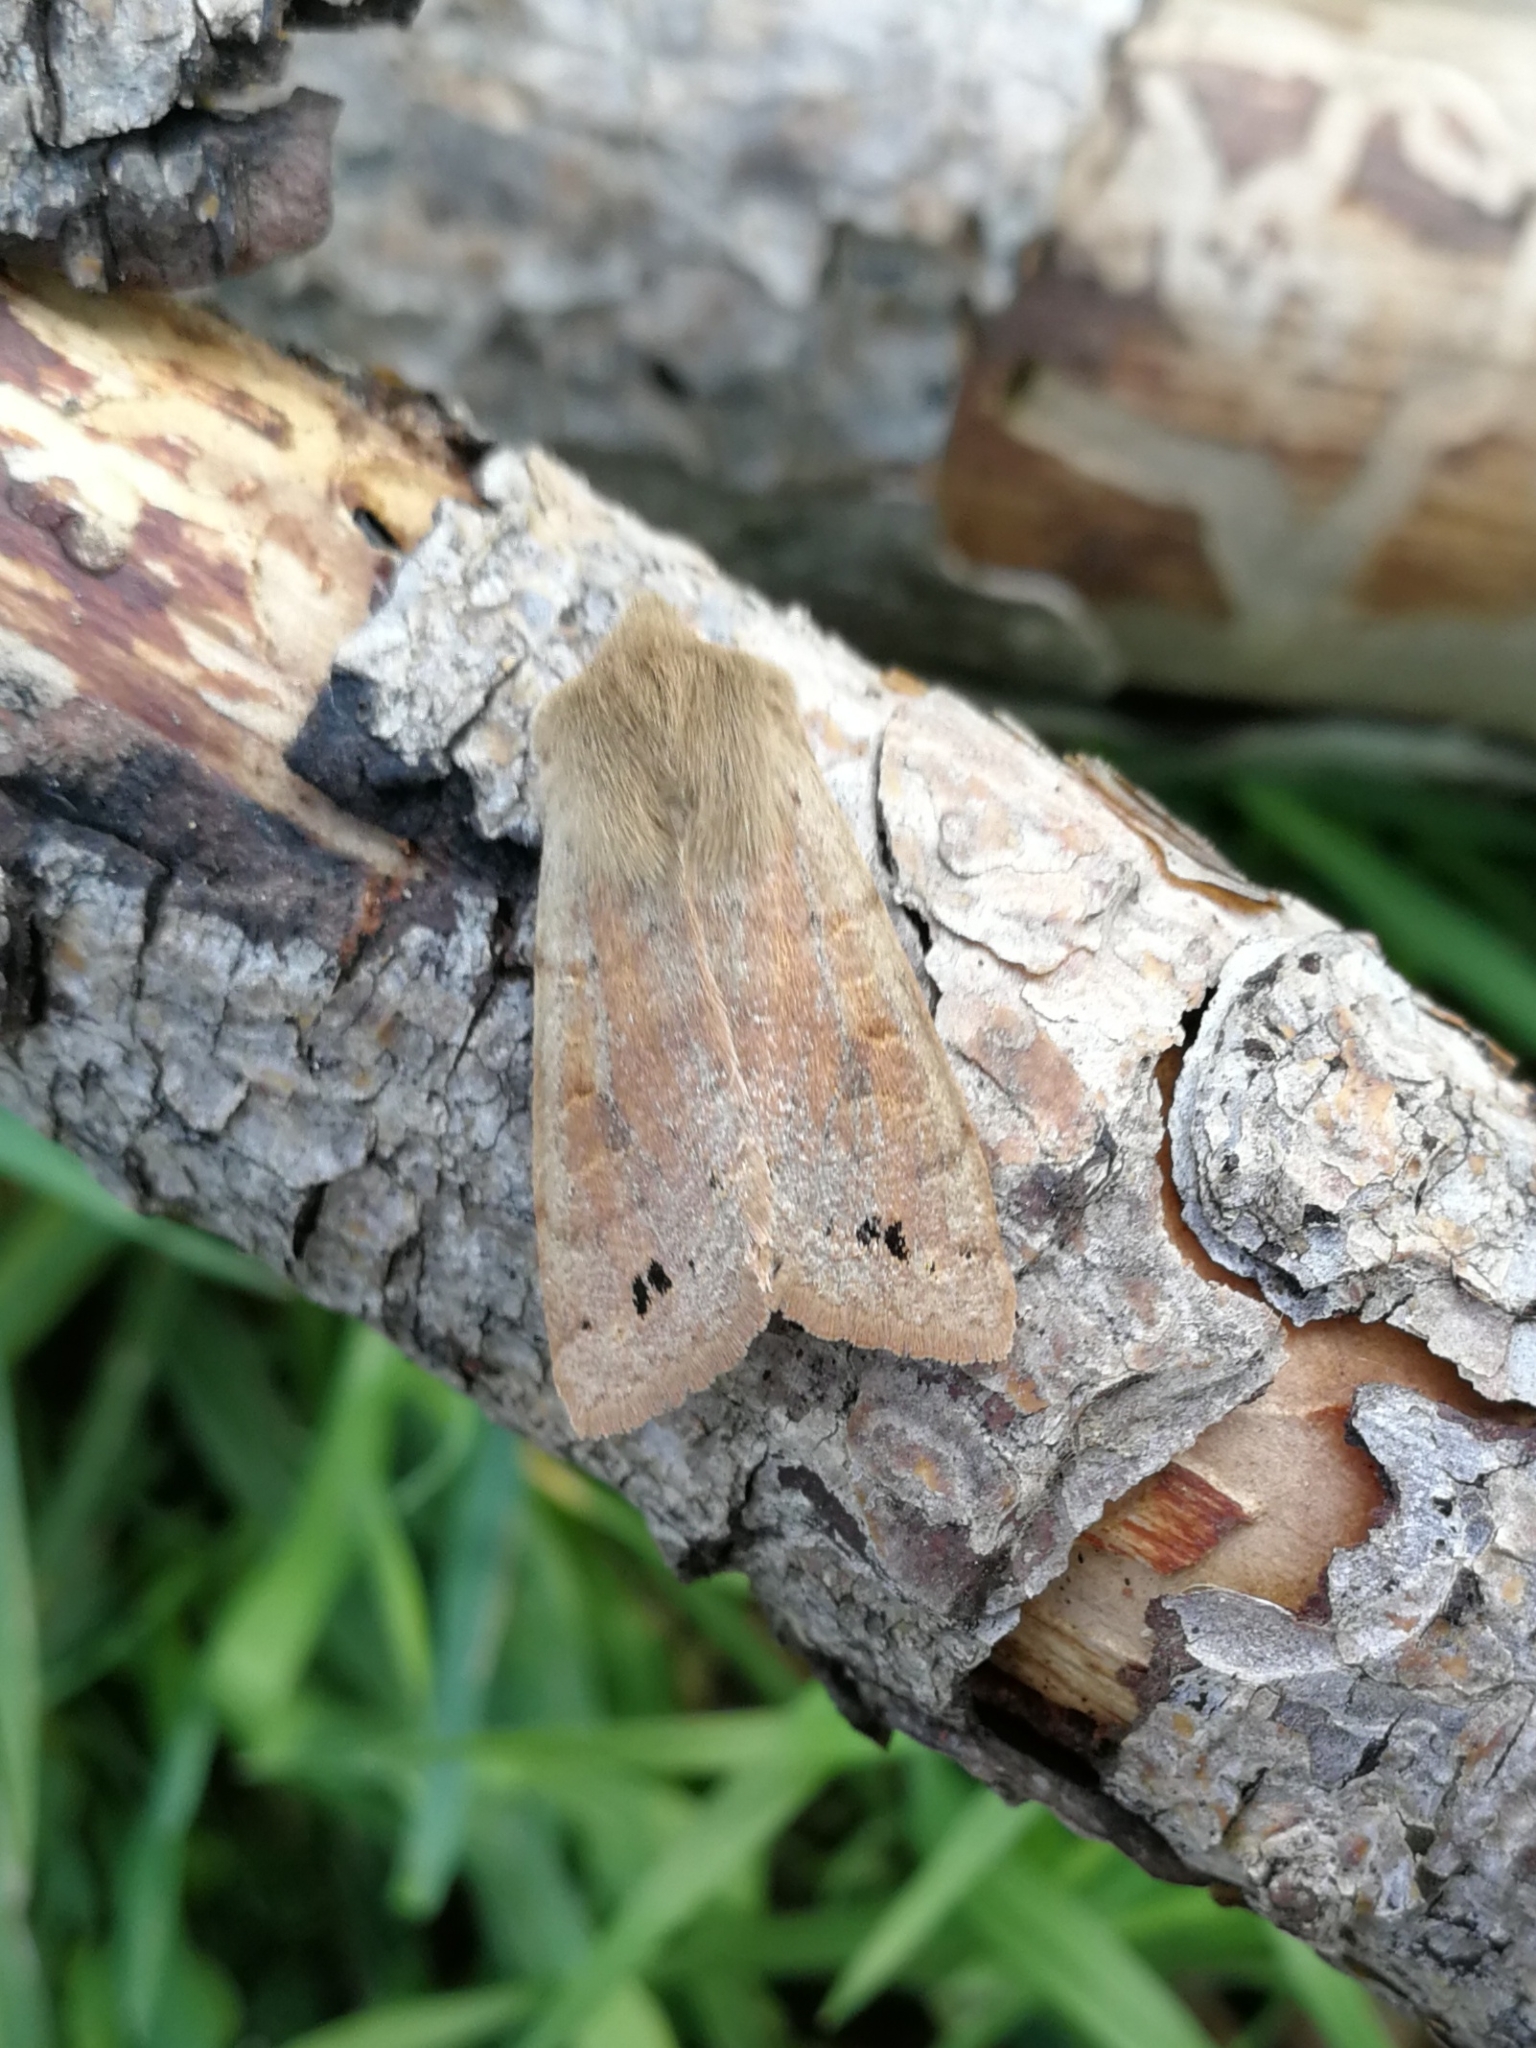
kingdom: Animalia
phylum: Arthropoda
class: Insecta
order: Lepidoptera
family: Noctuidae
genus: Anorthoa
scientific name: Anorthoa munda
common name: Twin-spotted quaker
